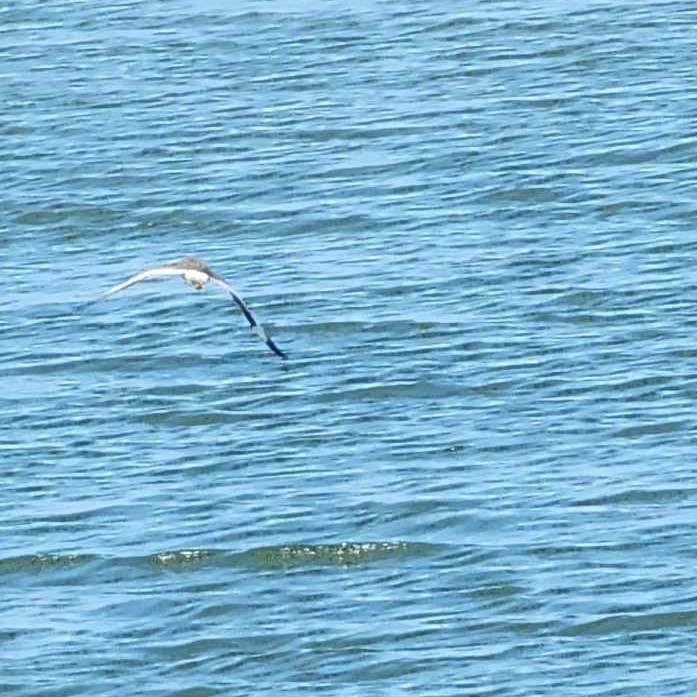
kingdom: Animalia
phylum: Chordata
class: Aves
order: Charadriiformes
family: Scolopacidae
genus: Tringa
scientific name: Tringa semipalmata
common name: Willet
